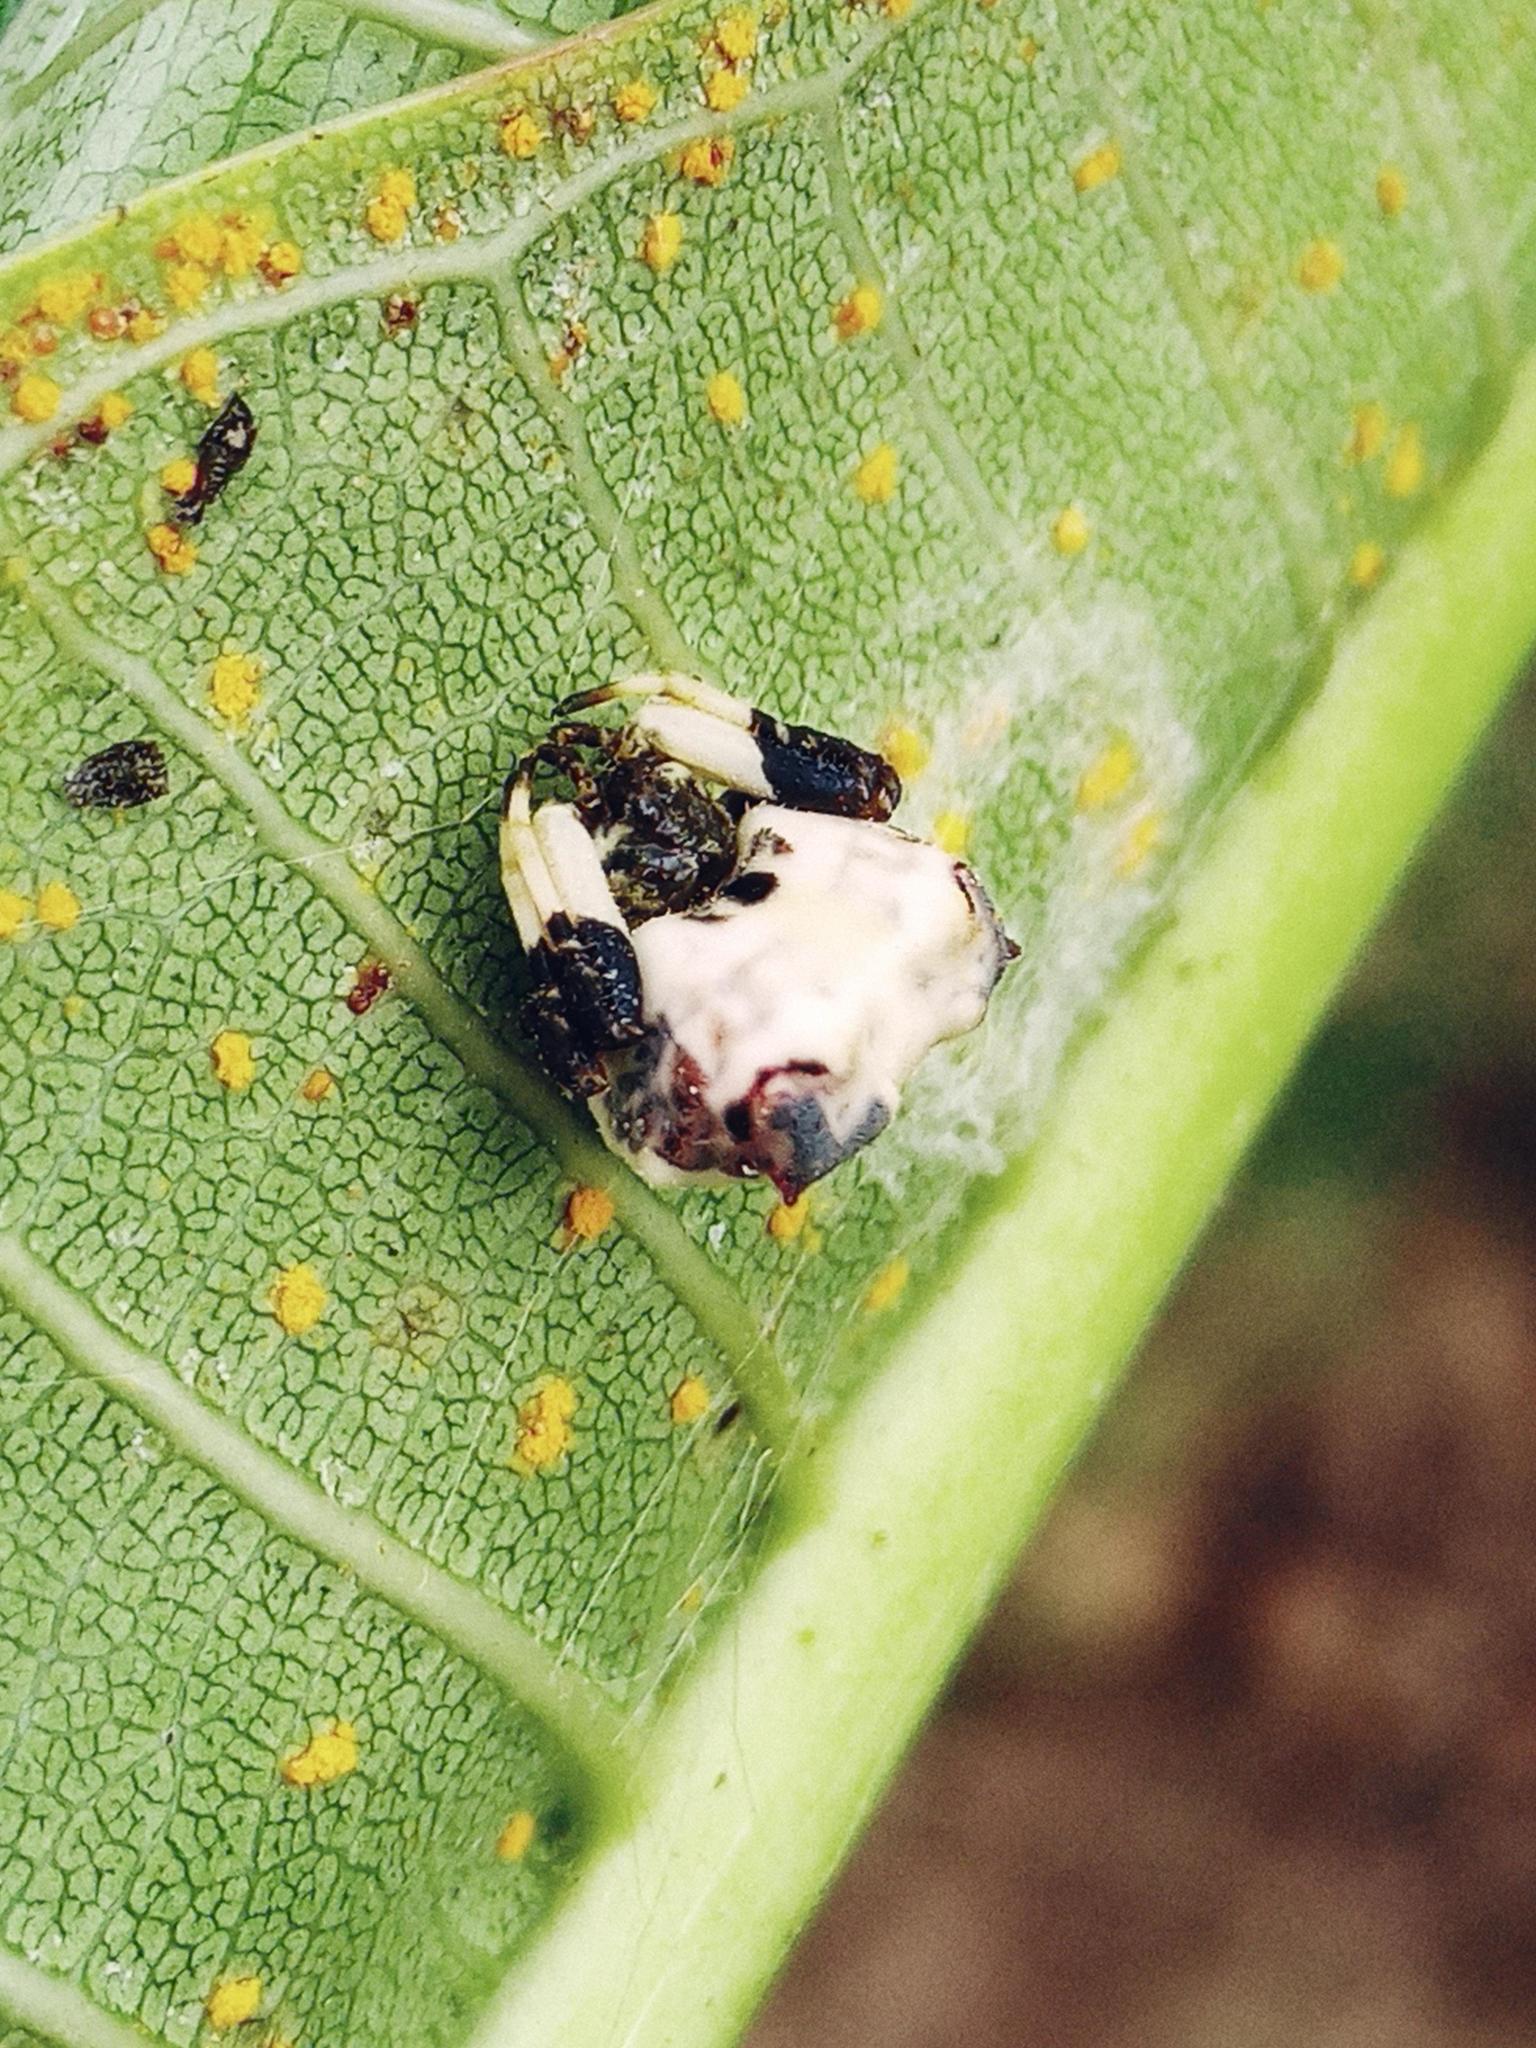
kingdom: Animalia
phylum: Arthropoda
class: Arachnida
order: Araneae
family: Araneidae
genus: Celaenia
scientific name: Celaenia excavata
